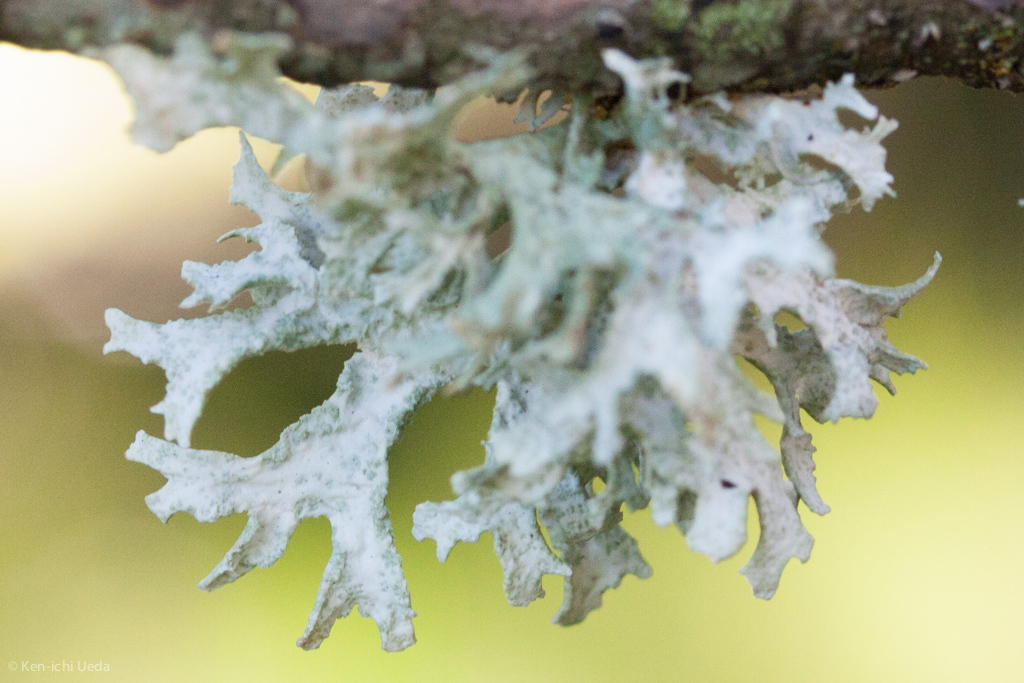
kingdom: Fungi
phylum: Ascomycota
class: Lecanoromycetes
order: Lecanorales
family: Parmeliaceae
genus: Evernia
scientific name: Evernia prunastri
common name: Oak moss
